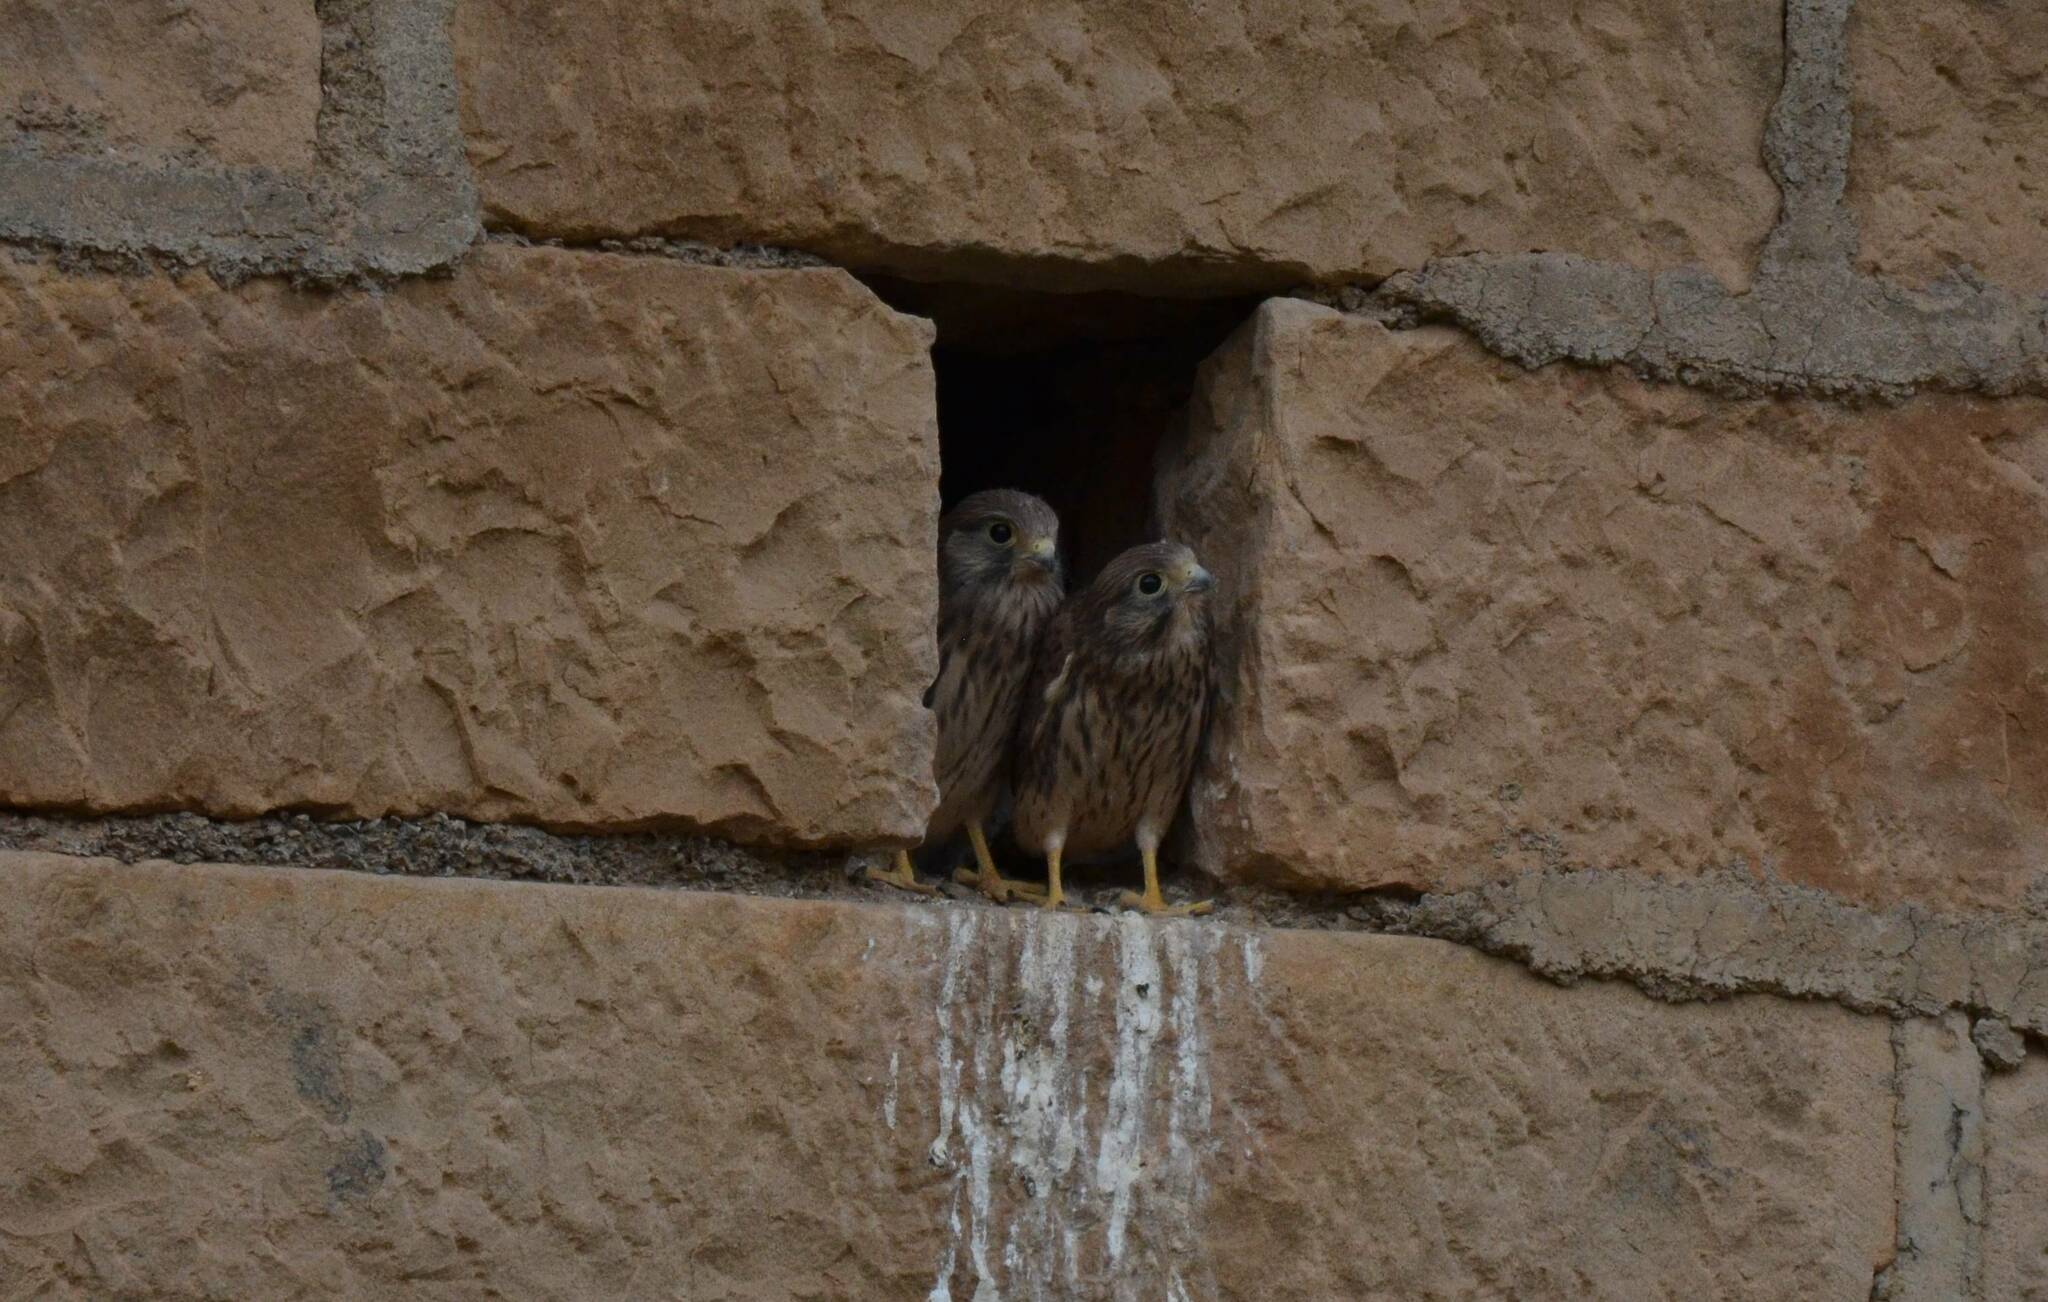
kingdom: Animalia
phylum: Chordata
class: Aves
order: Falconiformes
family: Falconidae
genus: Falco
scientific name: Falco tinnunculus
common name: Common kestrel
